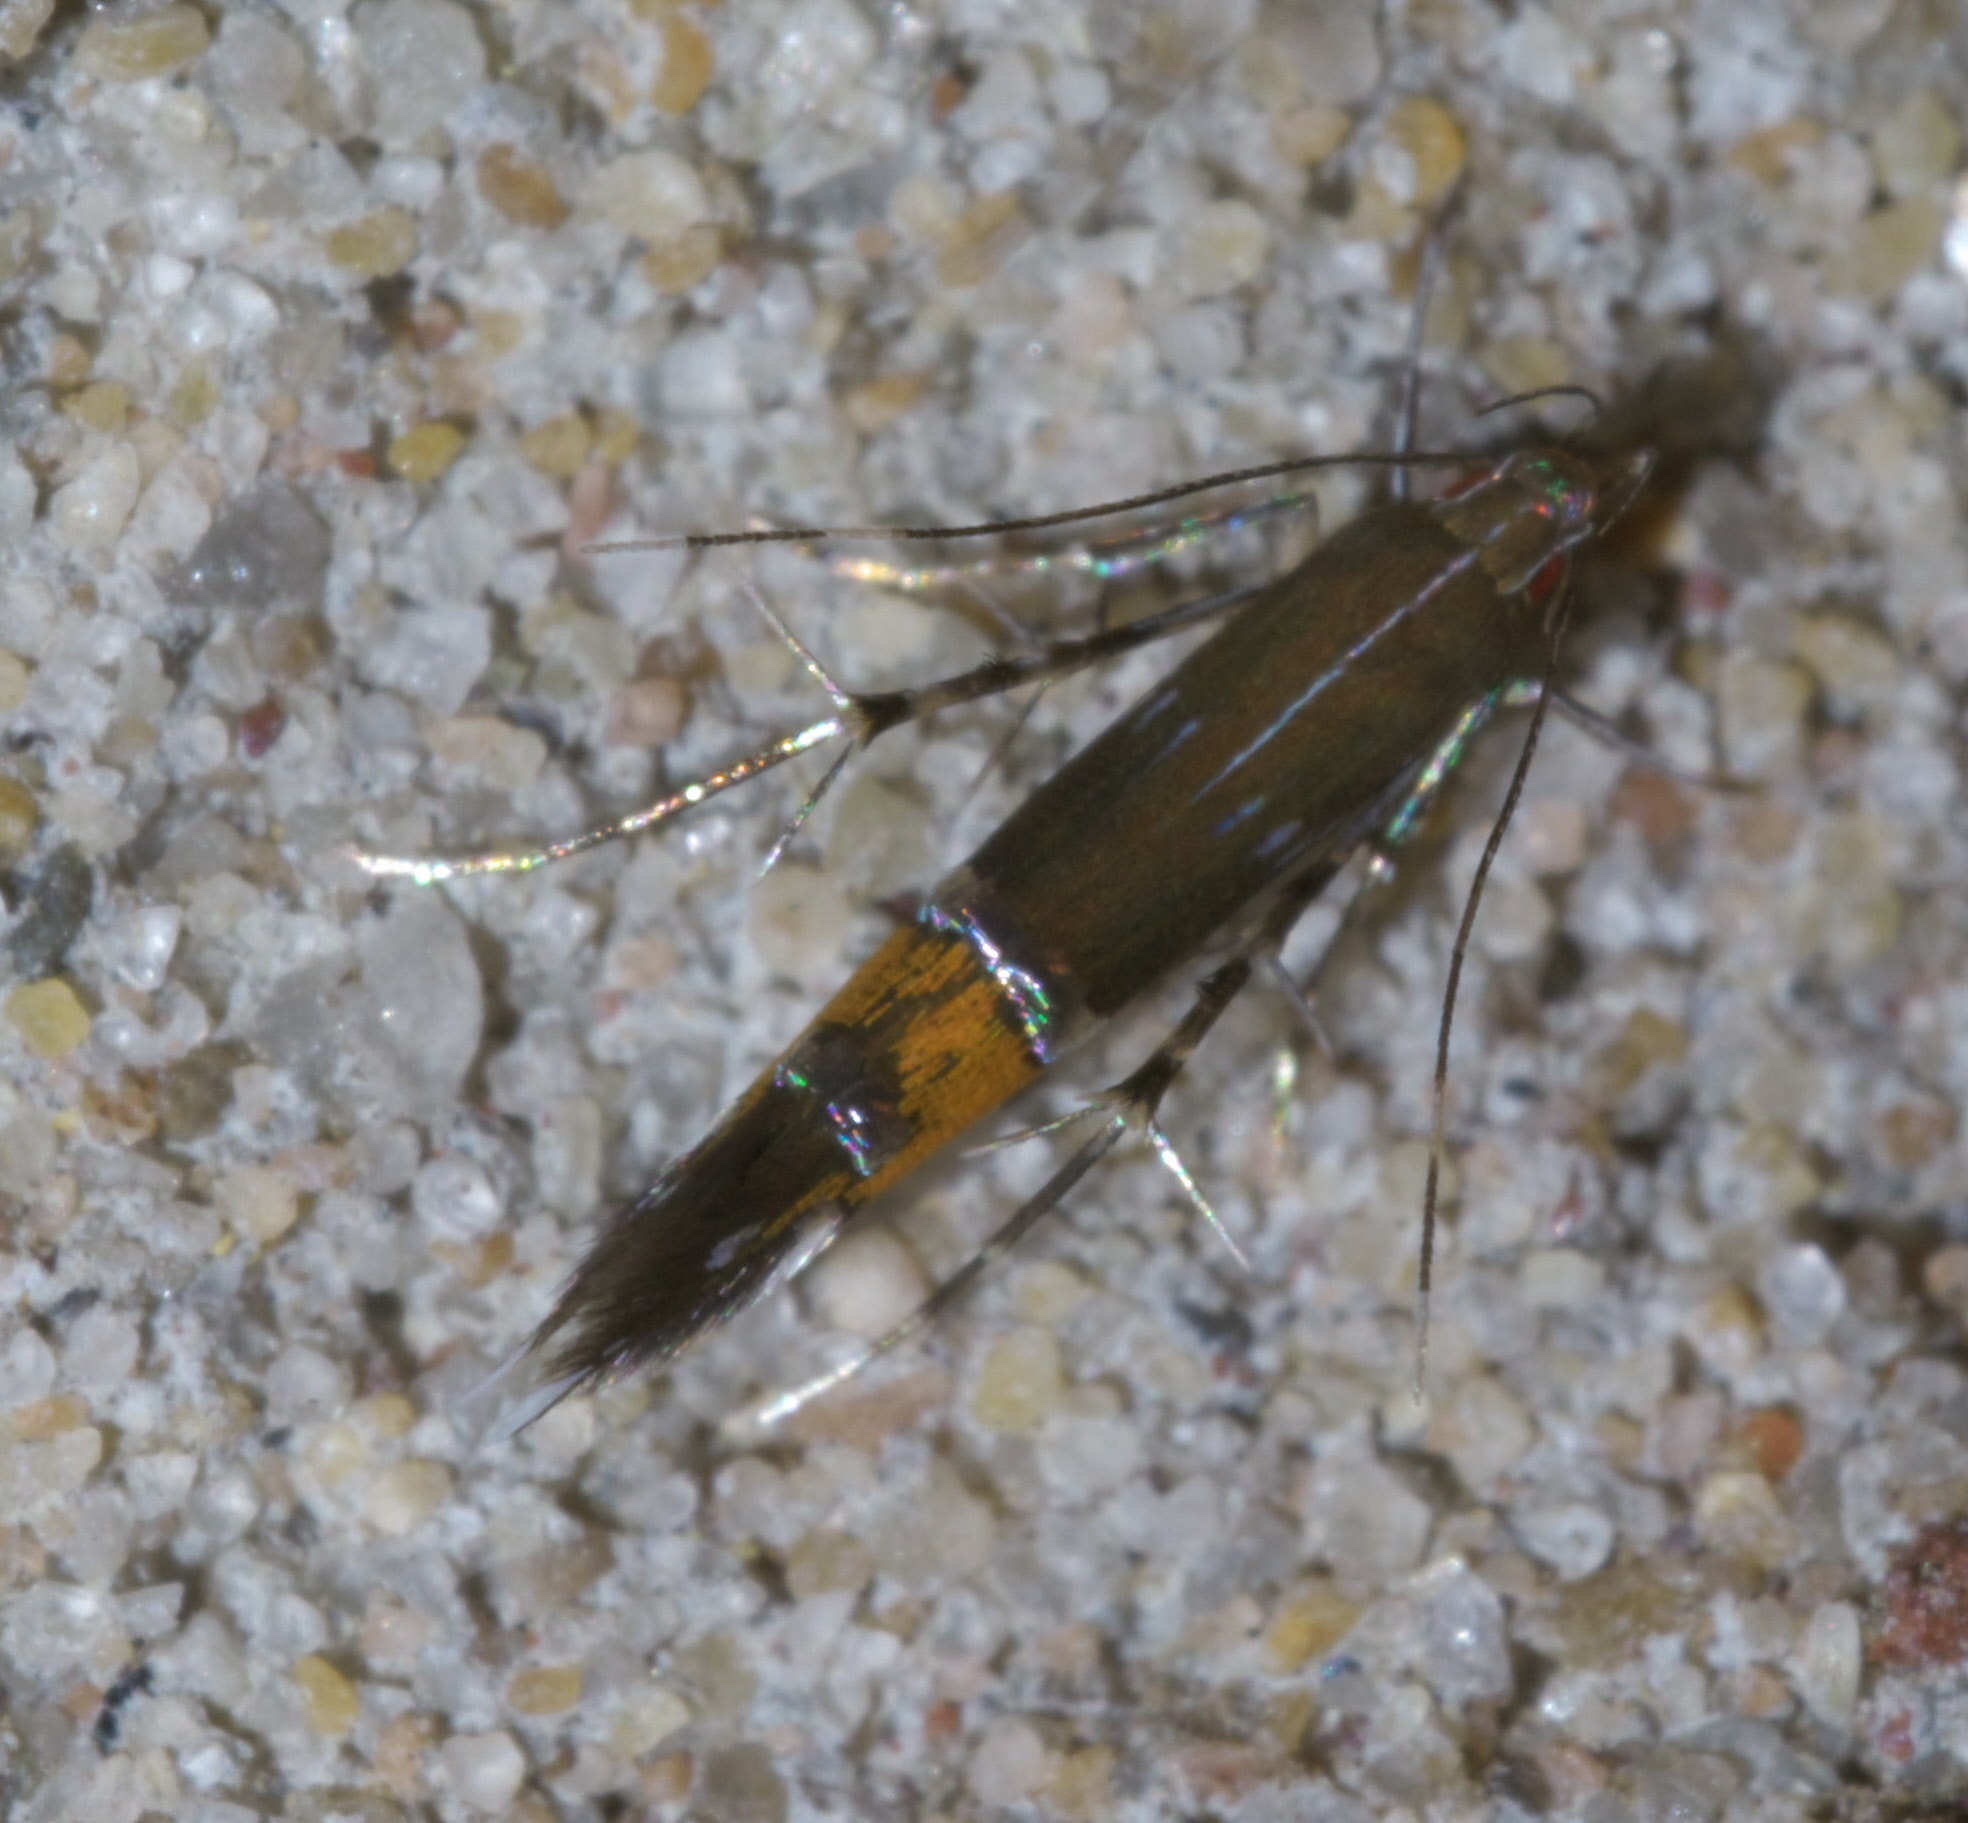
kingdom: Animalia
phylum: Arthropoda
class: Insecta
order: Lepidoptera
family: Cosmopterigidae
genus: Cosmopterix
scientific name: Cosmopterix gemmiferella
